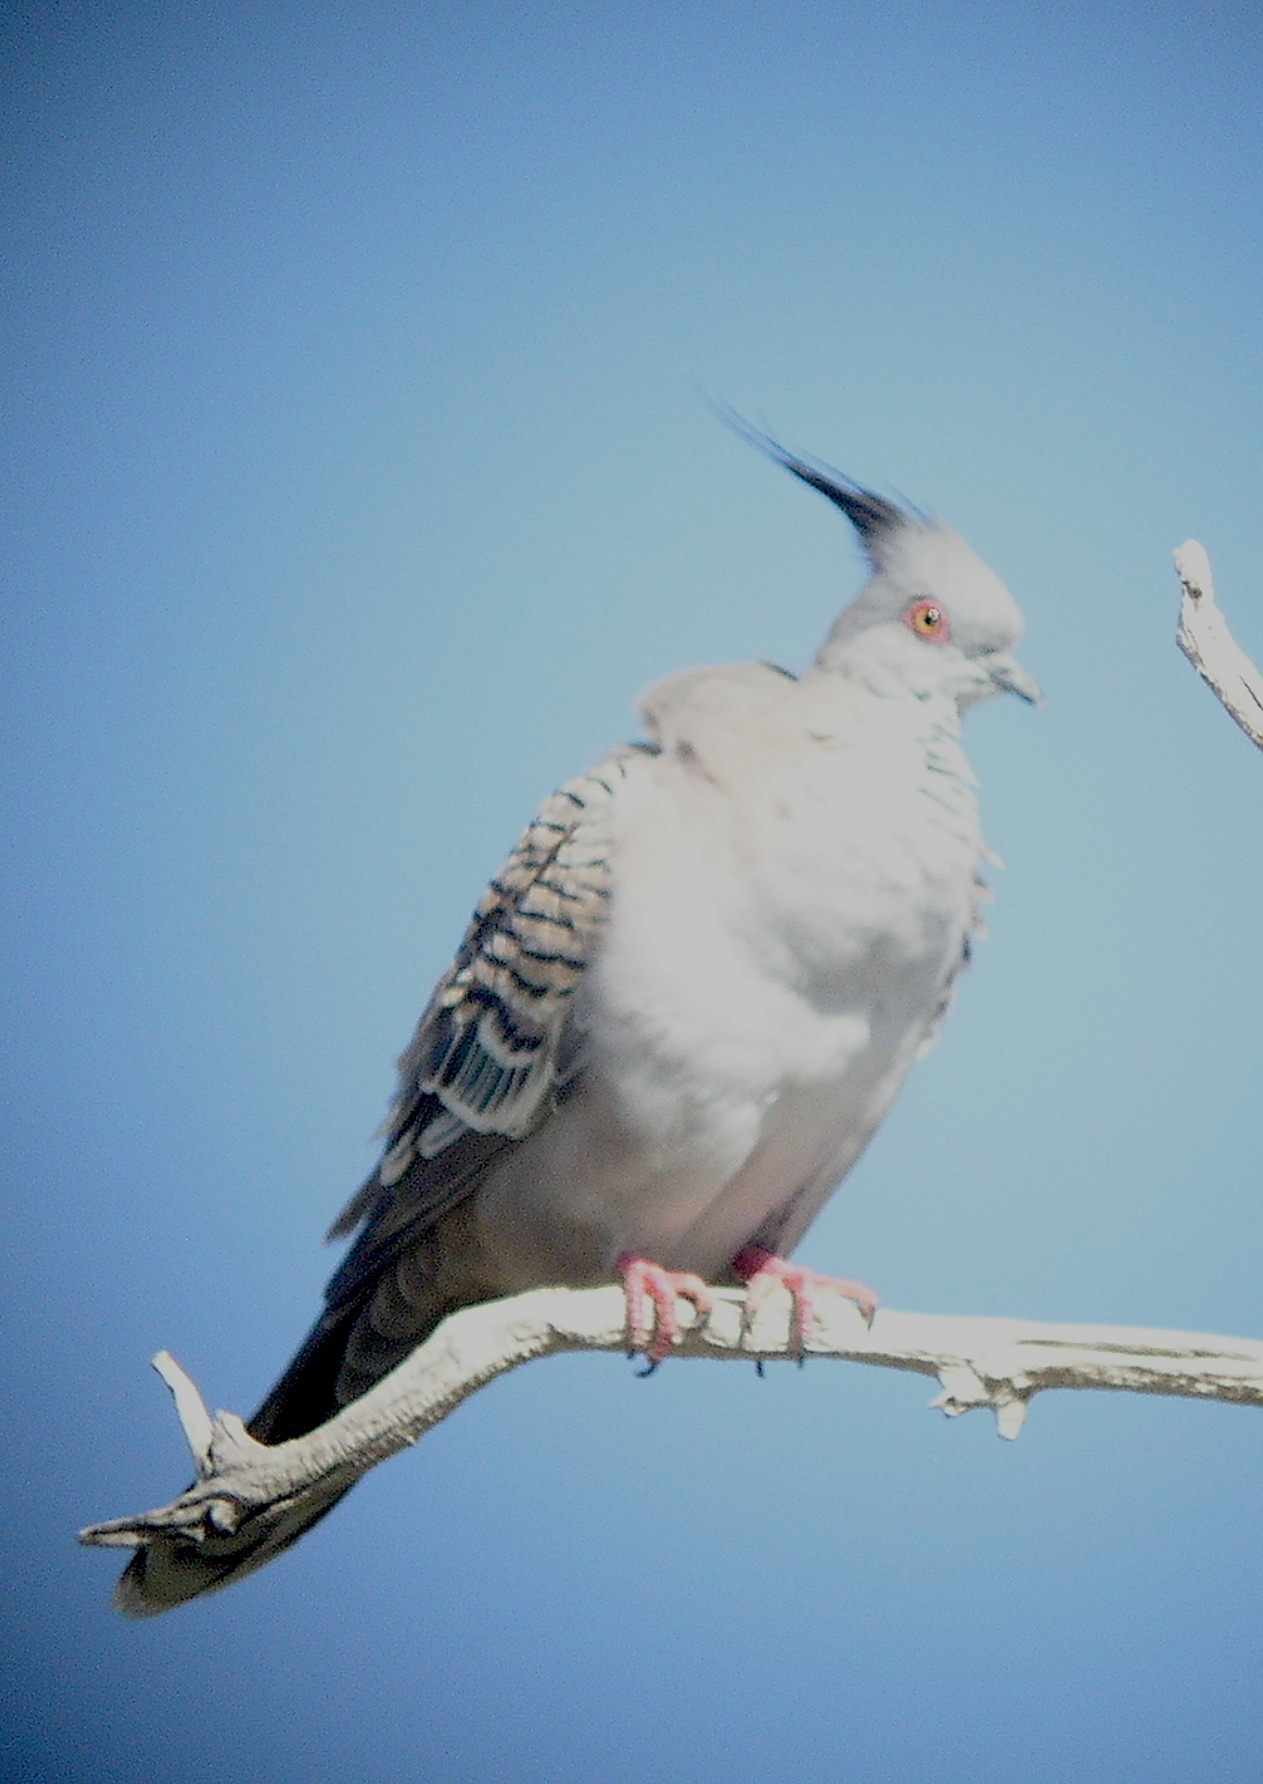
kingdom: Animalia
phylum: Chordata
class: Aves
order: Columbiformes
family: Columbidae
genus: Ocyphaps
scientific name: Ocyphaps lophotes
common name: Crested pigeon
